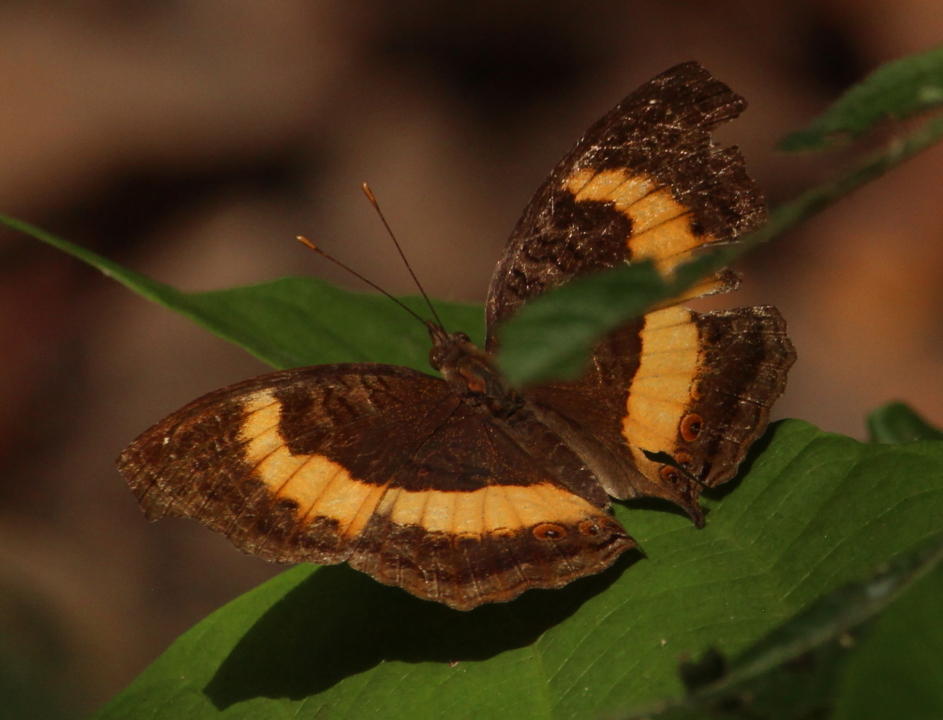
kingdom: Animalia
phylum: Arthropoda
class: Insecta
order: Lepidoptera
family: Nymphalidae
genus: Junonia
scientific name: Junonia terea
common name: Soldier pansy
